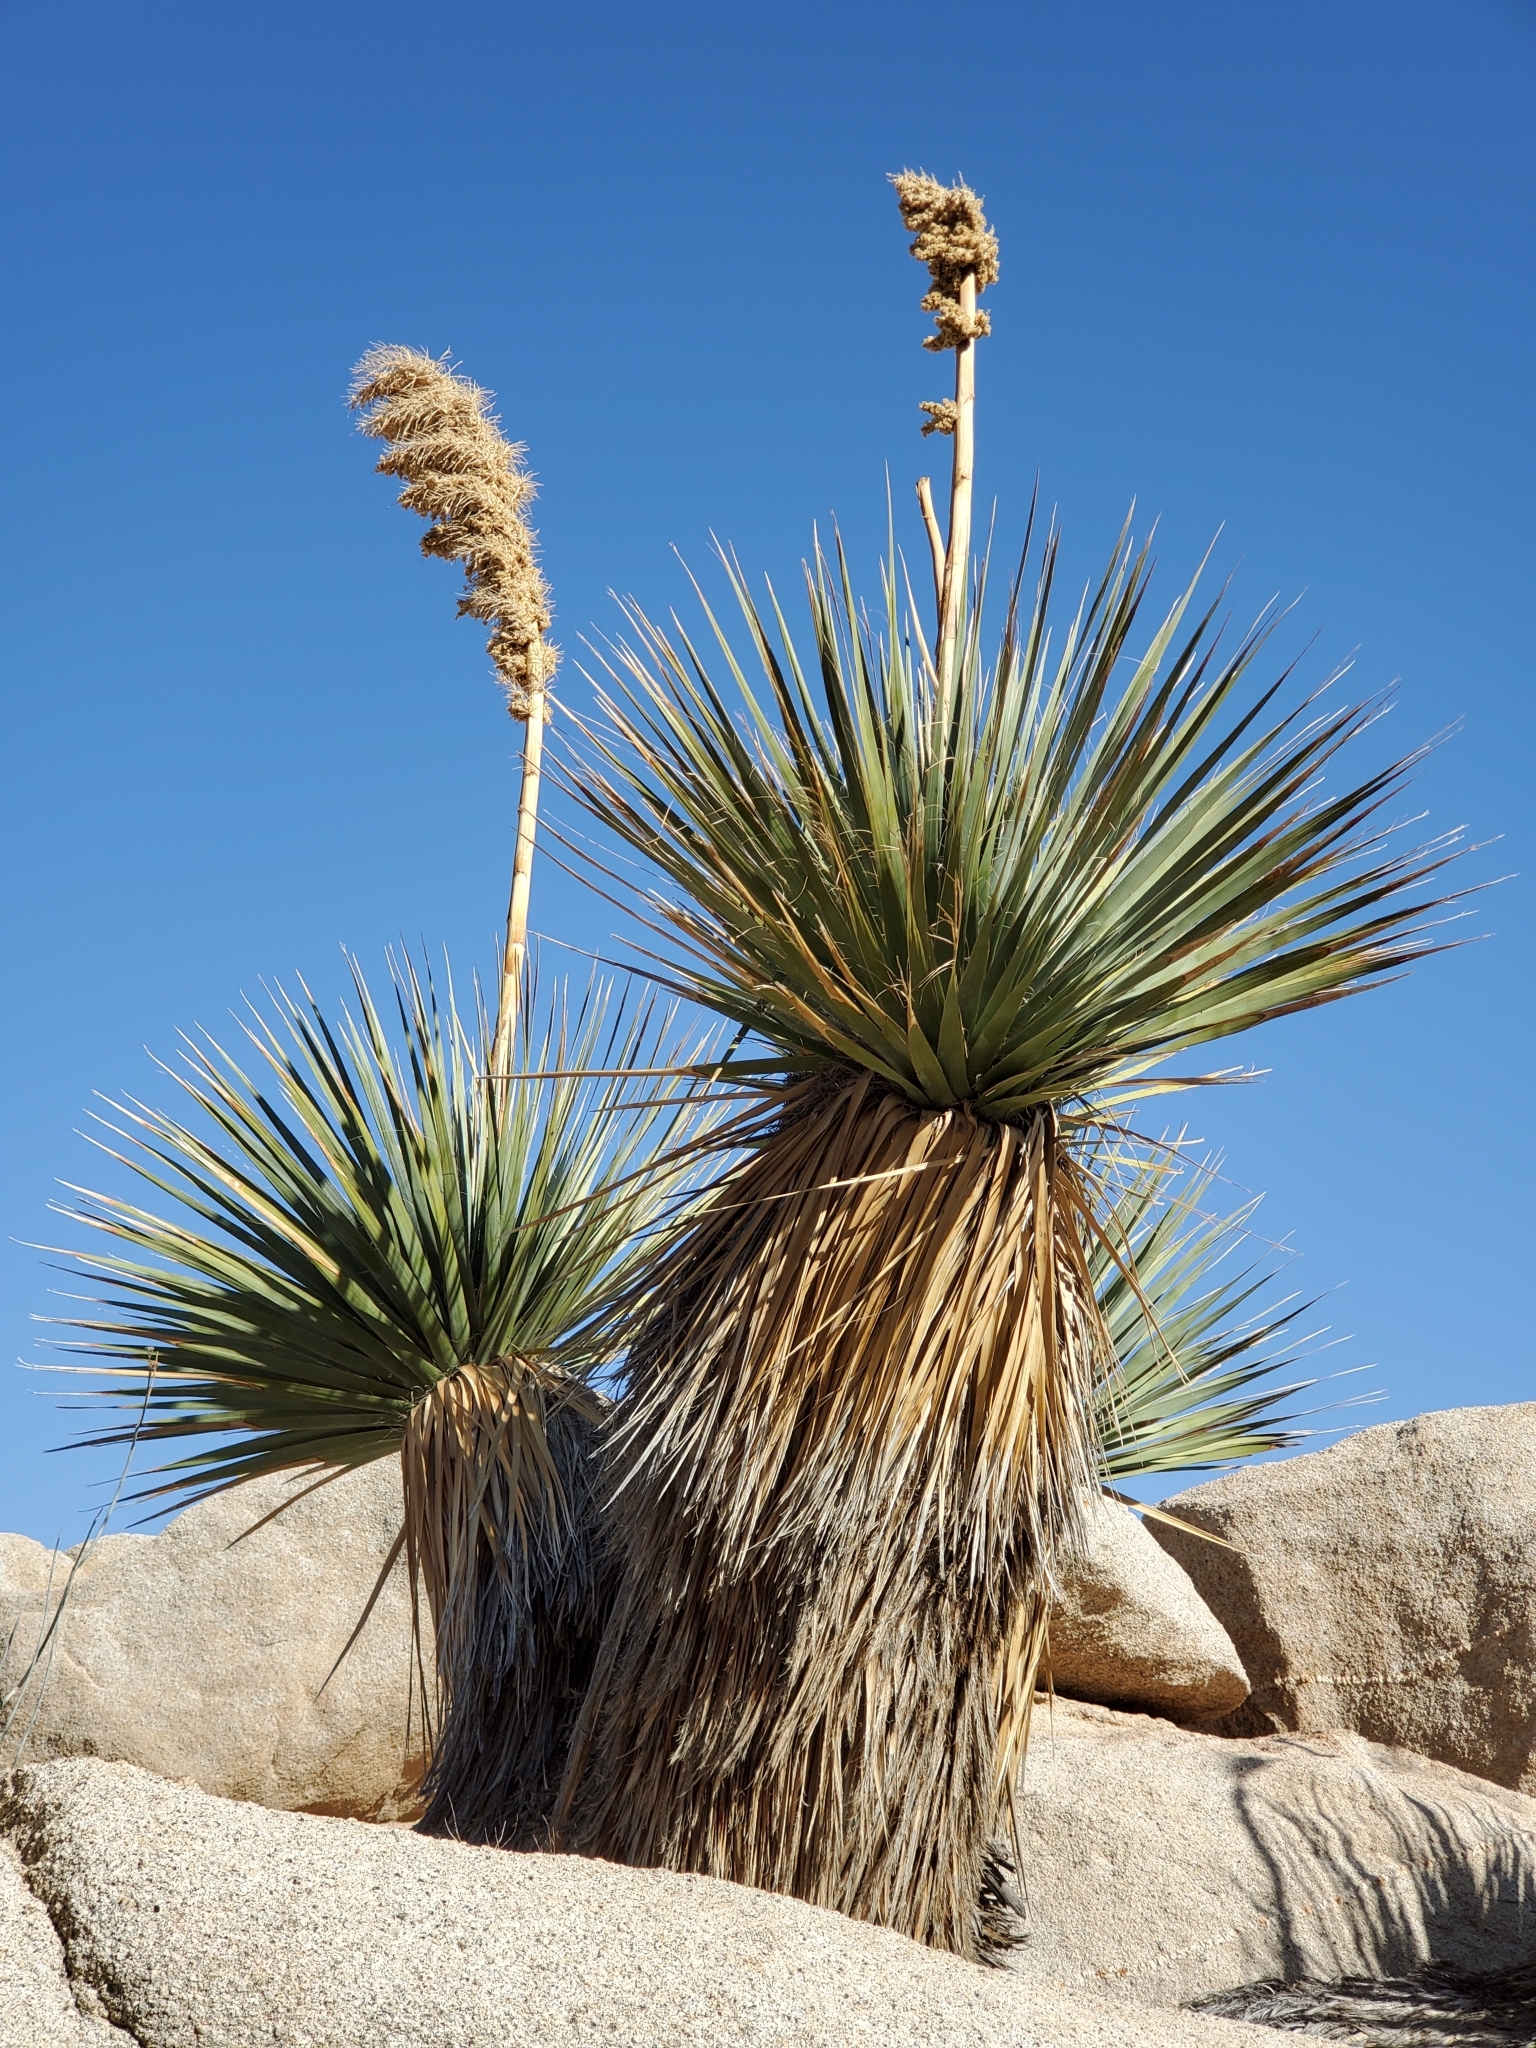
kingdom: Plantae
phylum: Tracheophyta
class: Liliopsida
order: Asparagales
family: Asparagaceae
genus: Nolina
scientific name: Nolina bigelovii
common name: Bigelow bear-grass
